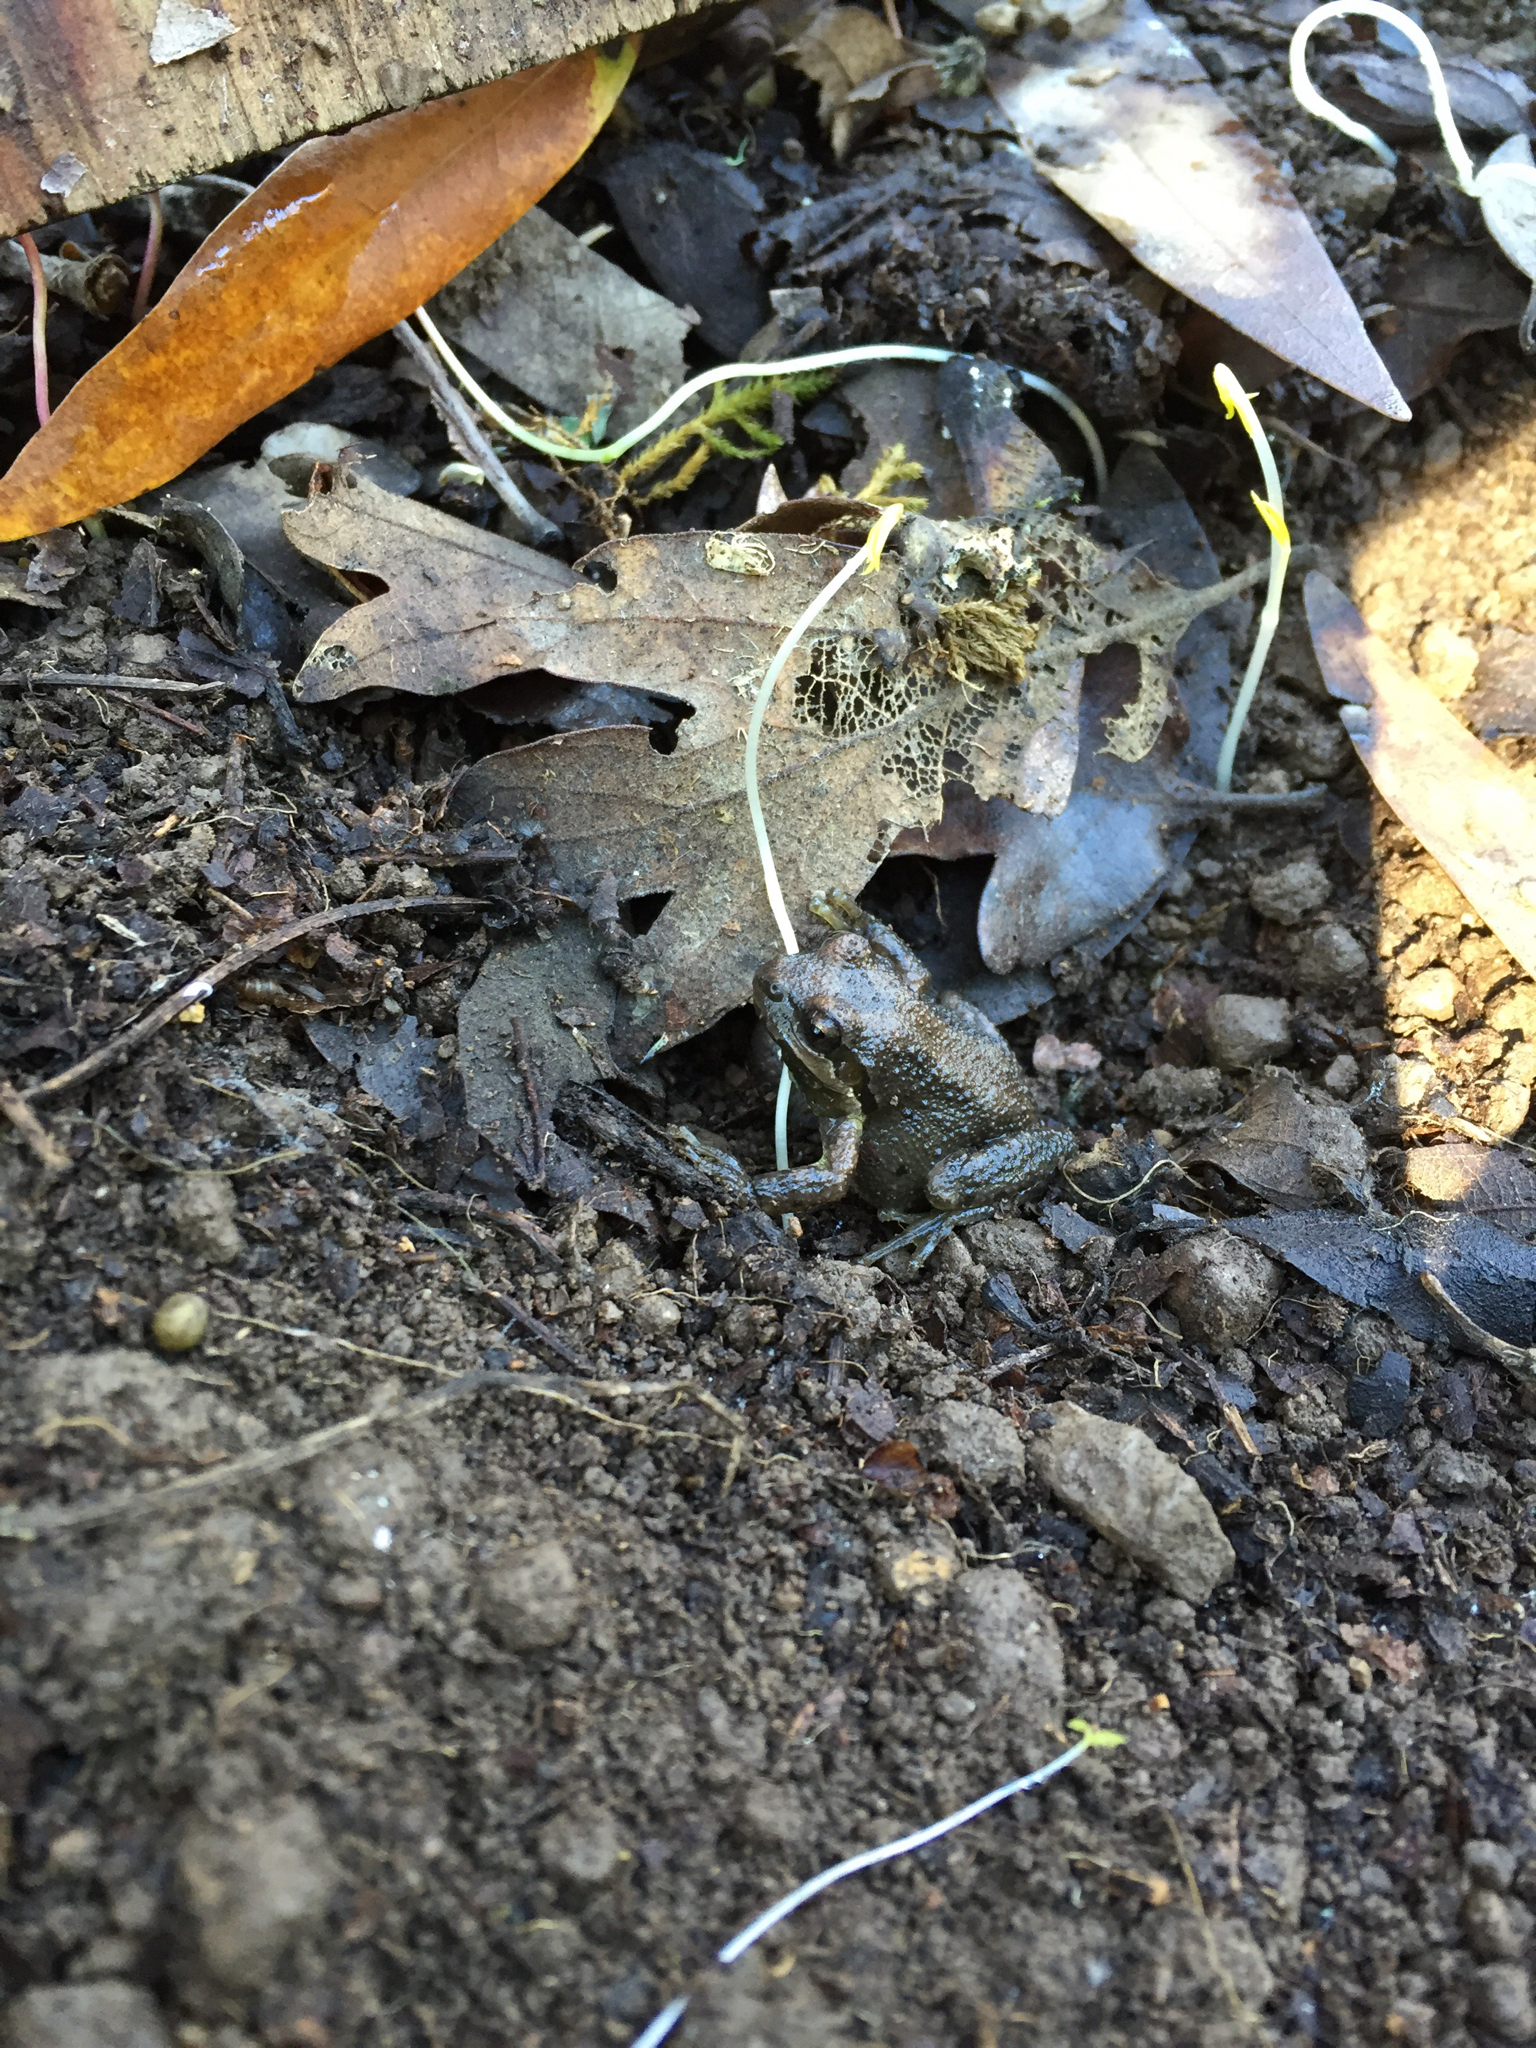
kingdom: Animalia
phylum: Chordata
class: Amphibia
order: Anura
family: Hylidae
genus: Pseudacris
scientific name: Pseudacris regilla
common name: Pacific chorus frog
